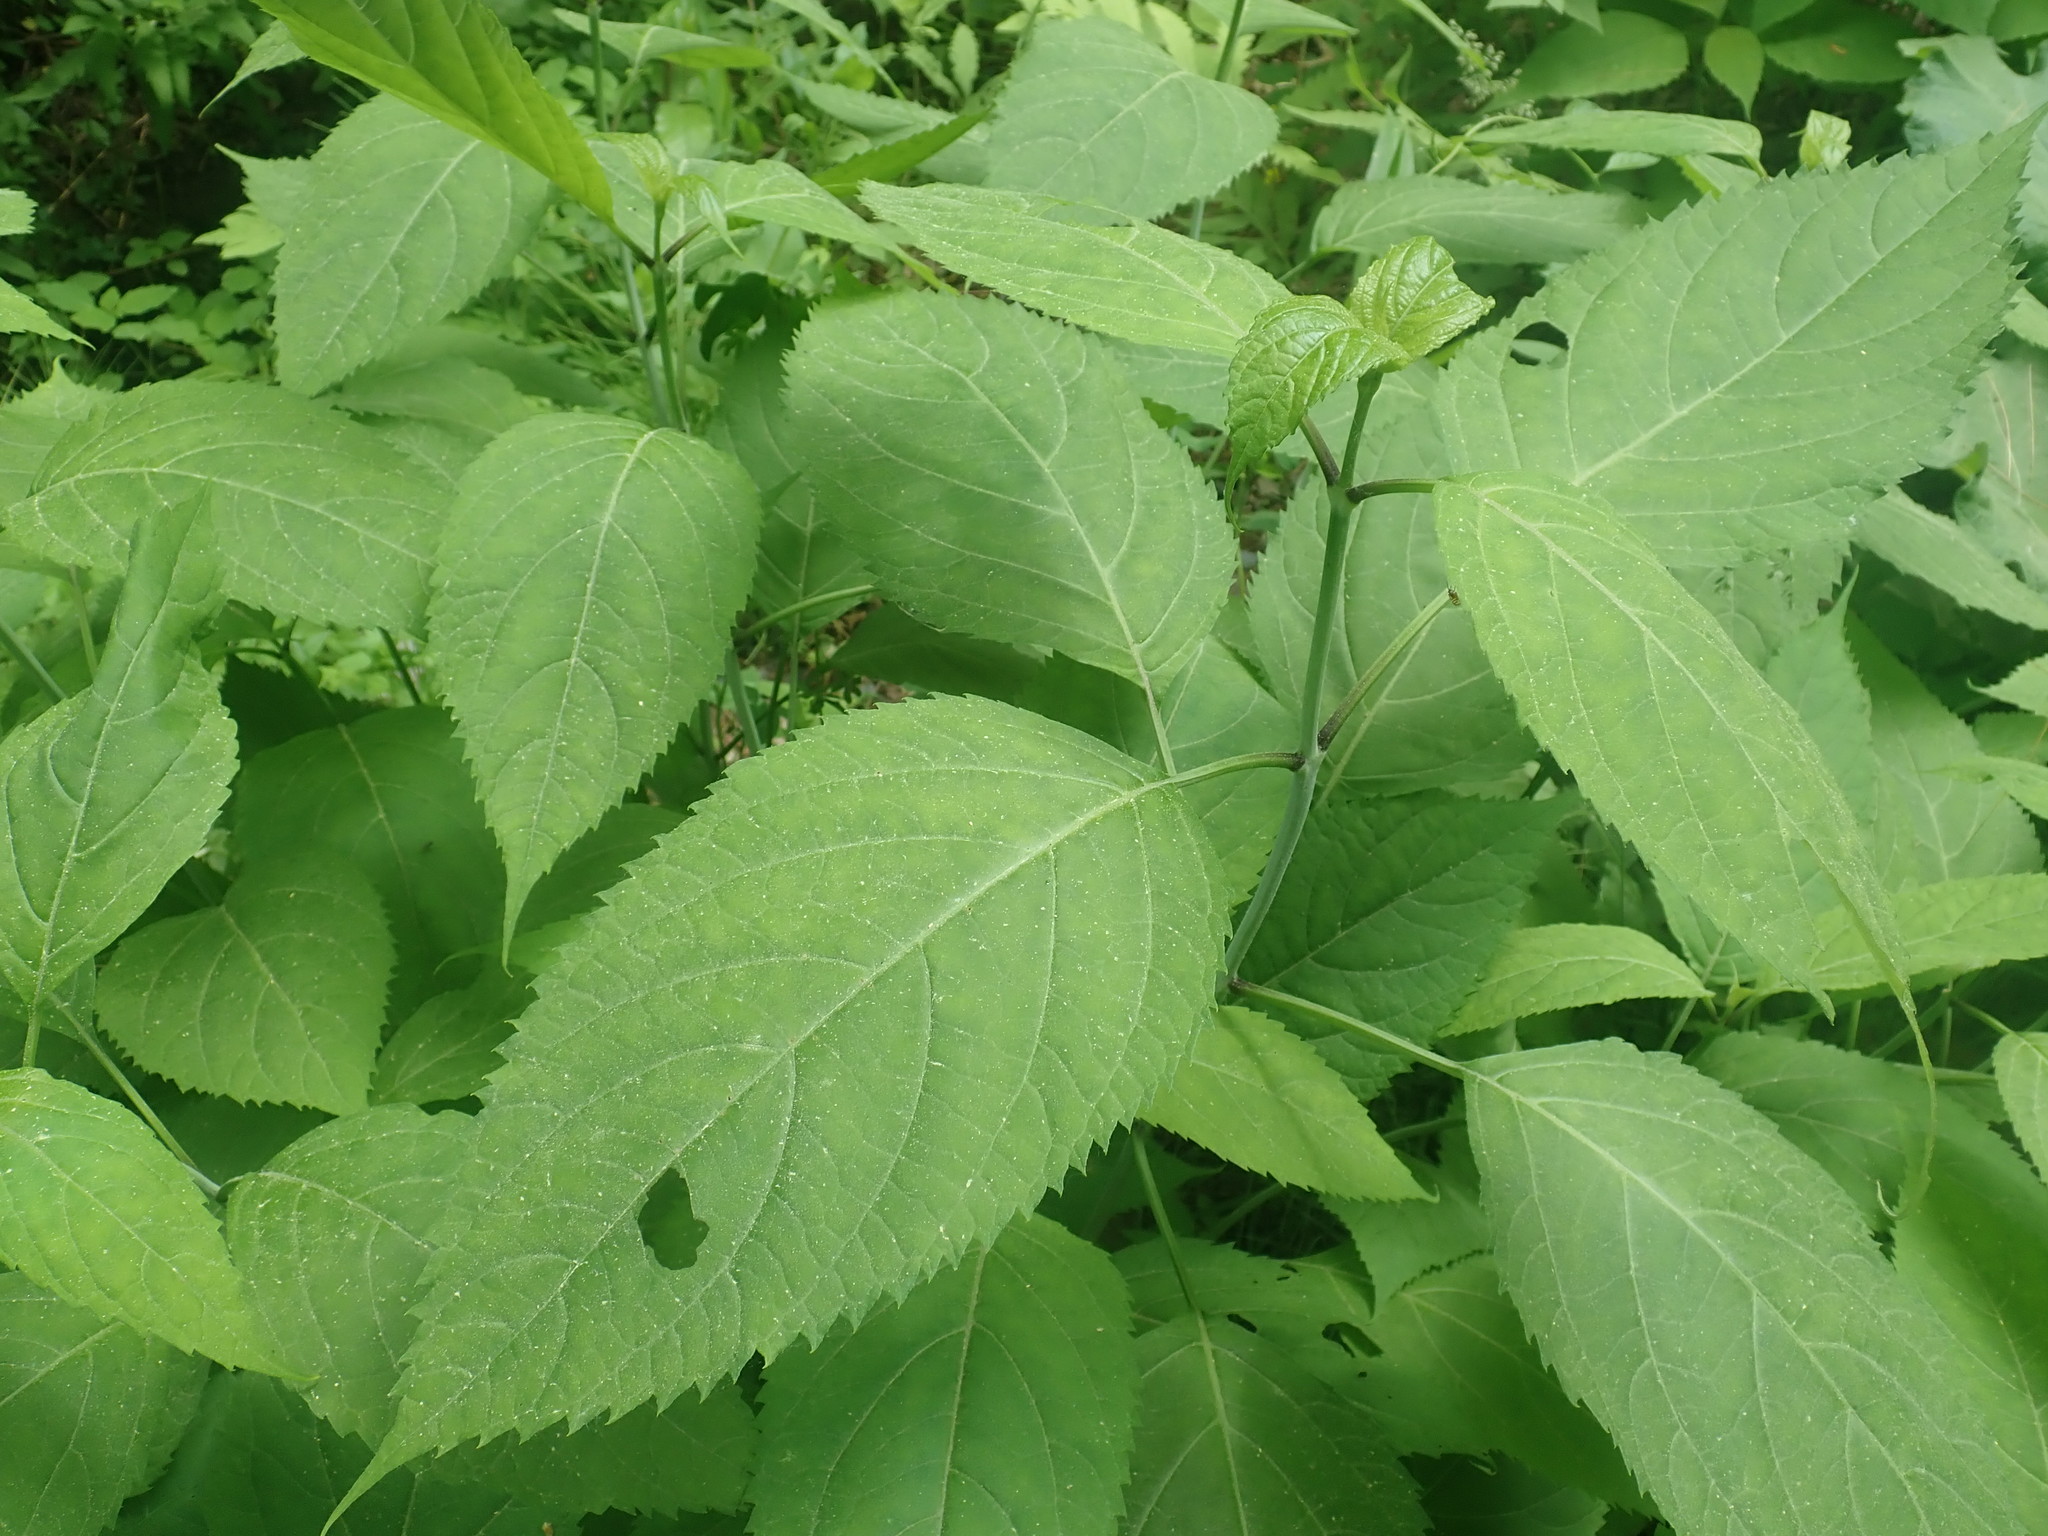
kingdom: Plantae
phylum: Tracheophyta
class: Magnoliopsida
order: Lamiales
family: Lamiaceae
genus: Collinsonia
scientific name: Collinsonia canadensis
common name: Northern horsebalm
